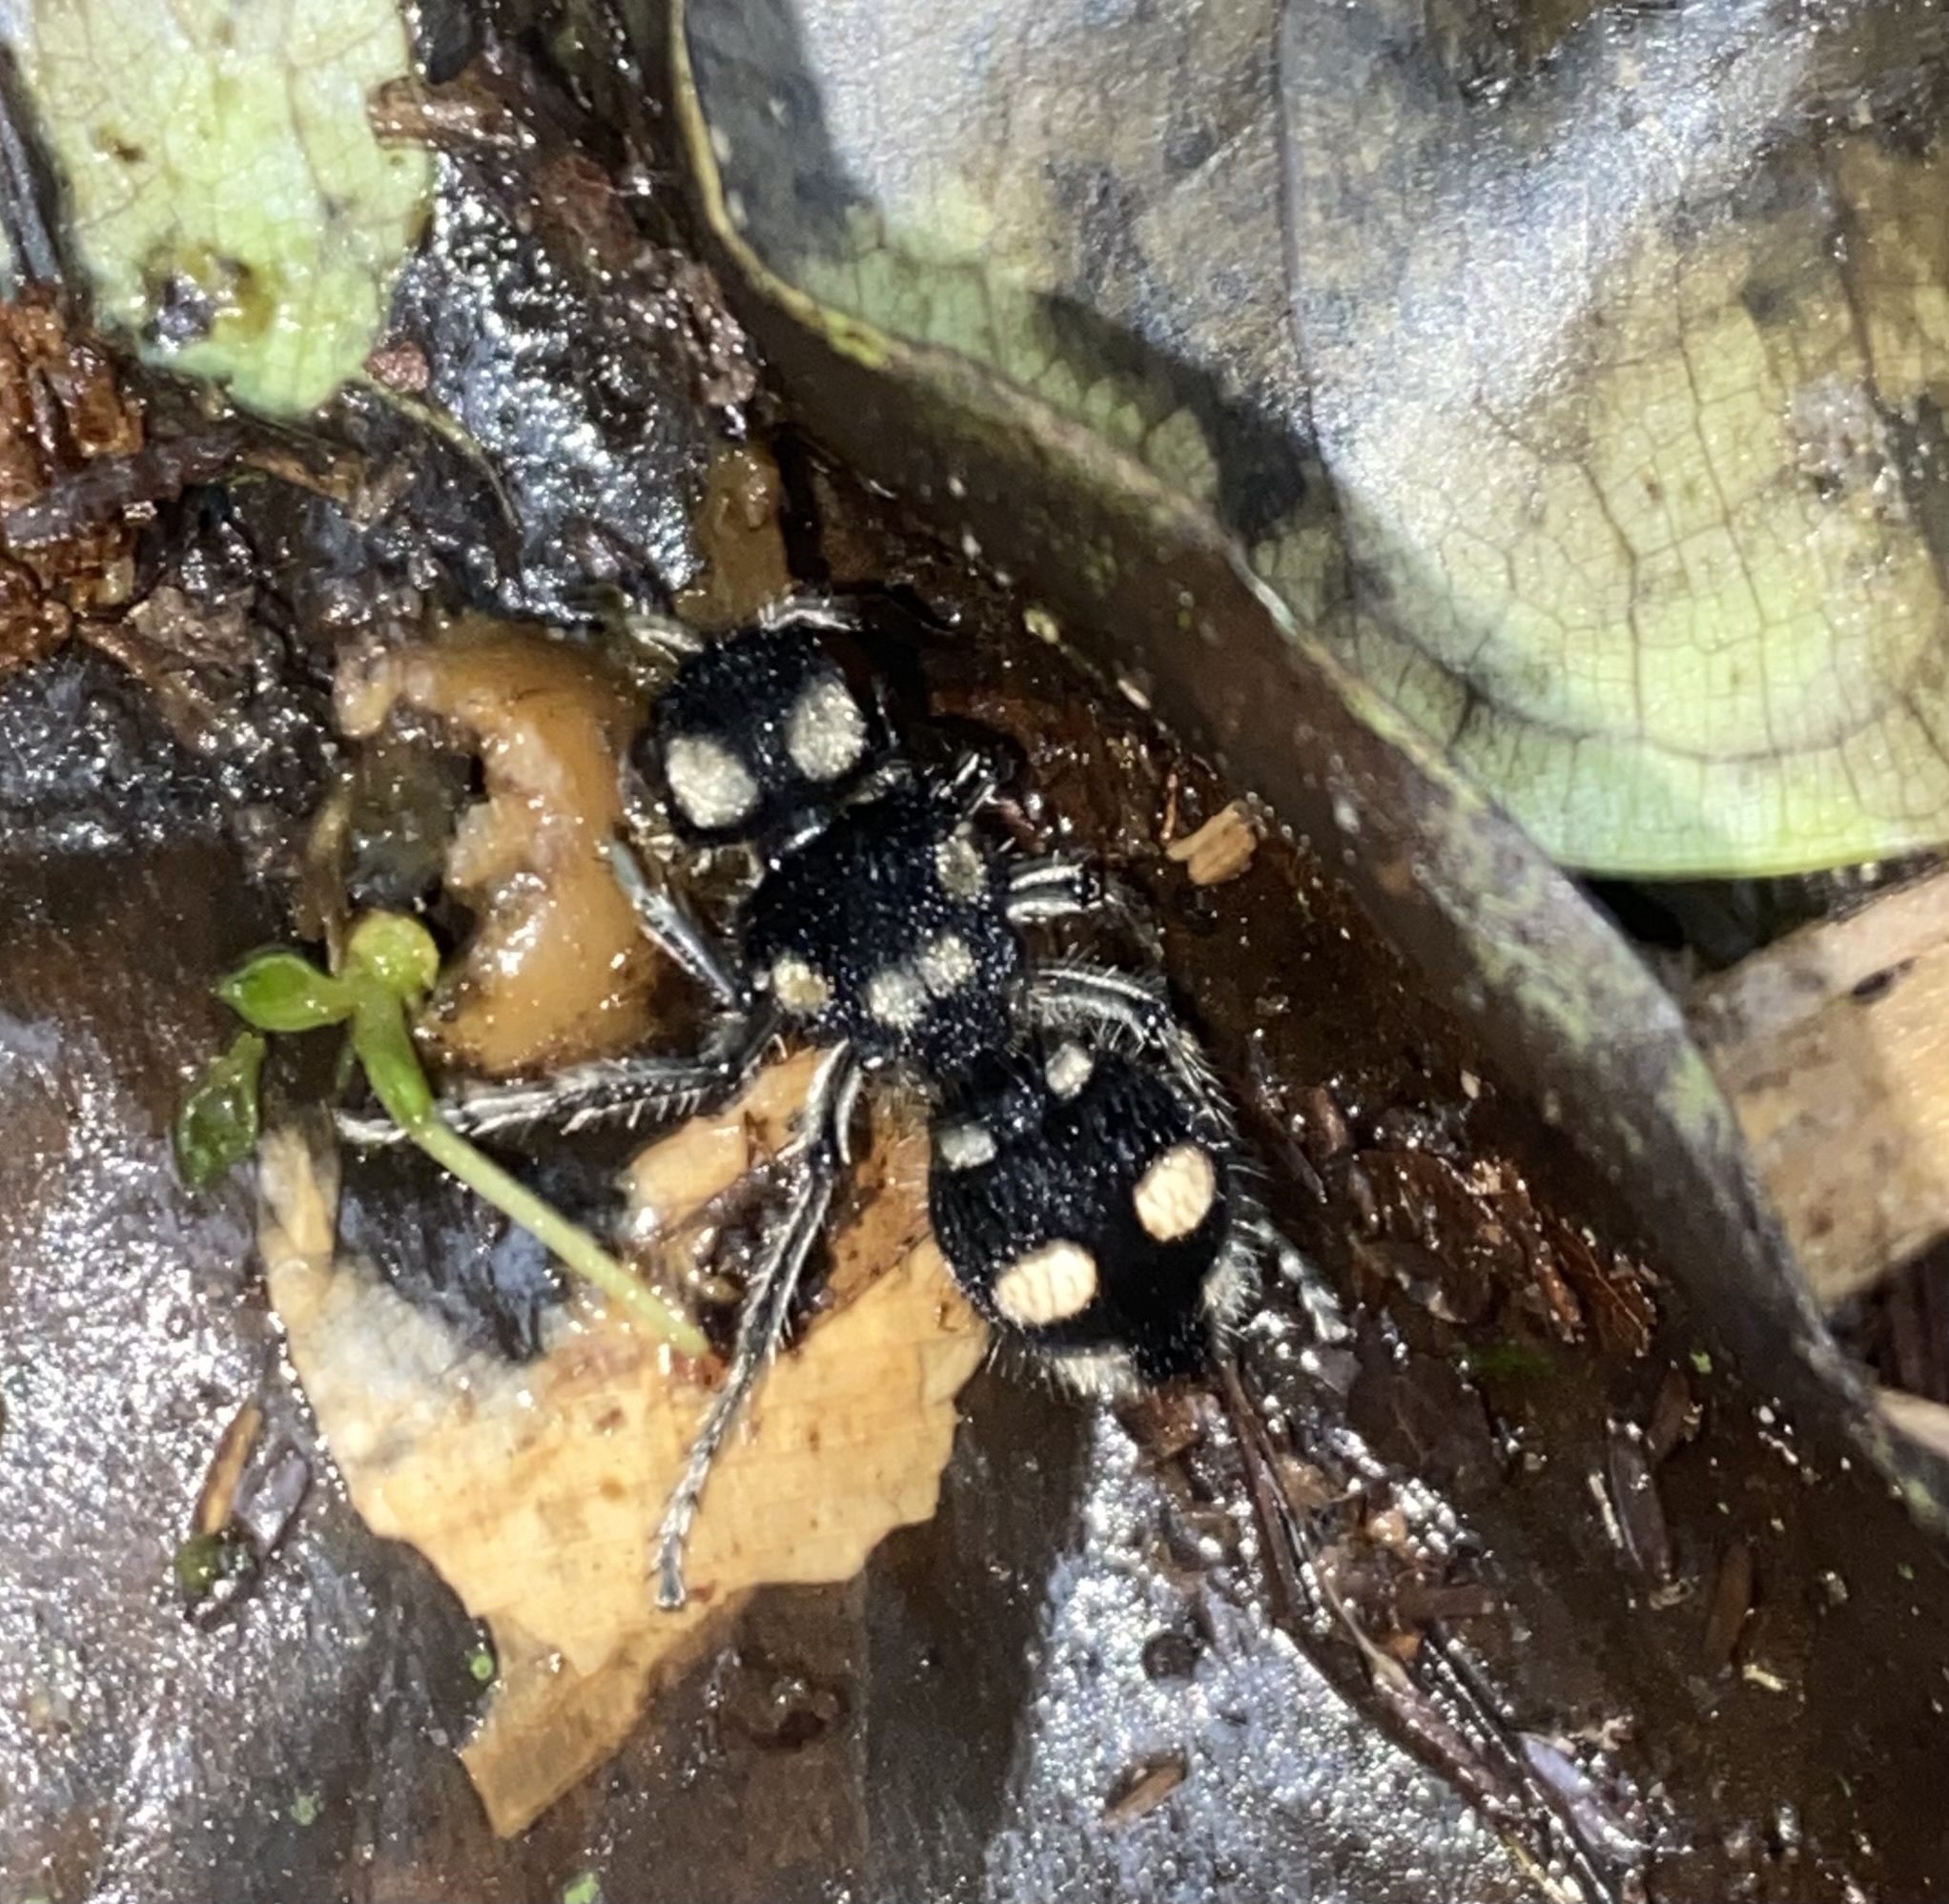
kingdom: Animalia
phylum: Arthropoda
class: Insecta
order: Hymenoptera
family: Mutillidae
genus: Hoplomutilla
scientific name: Hoplomutilla
